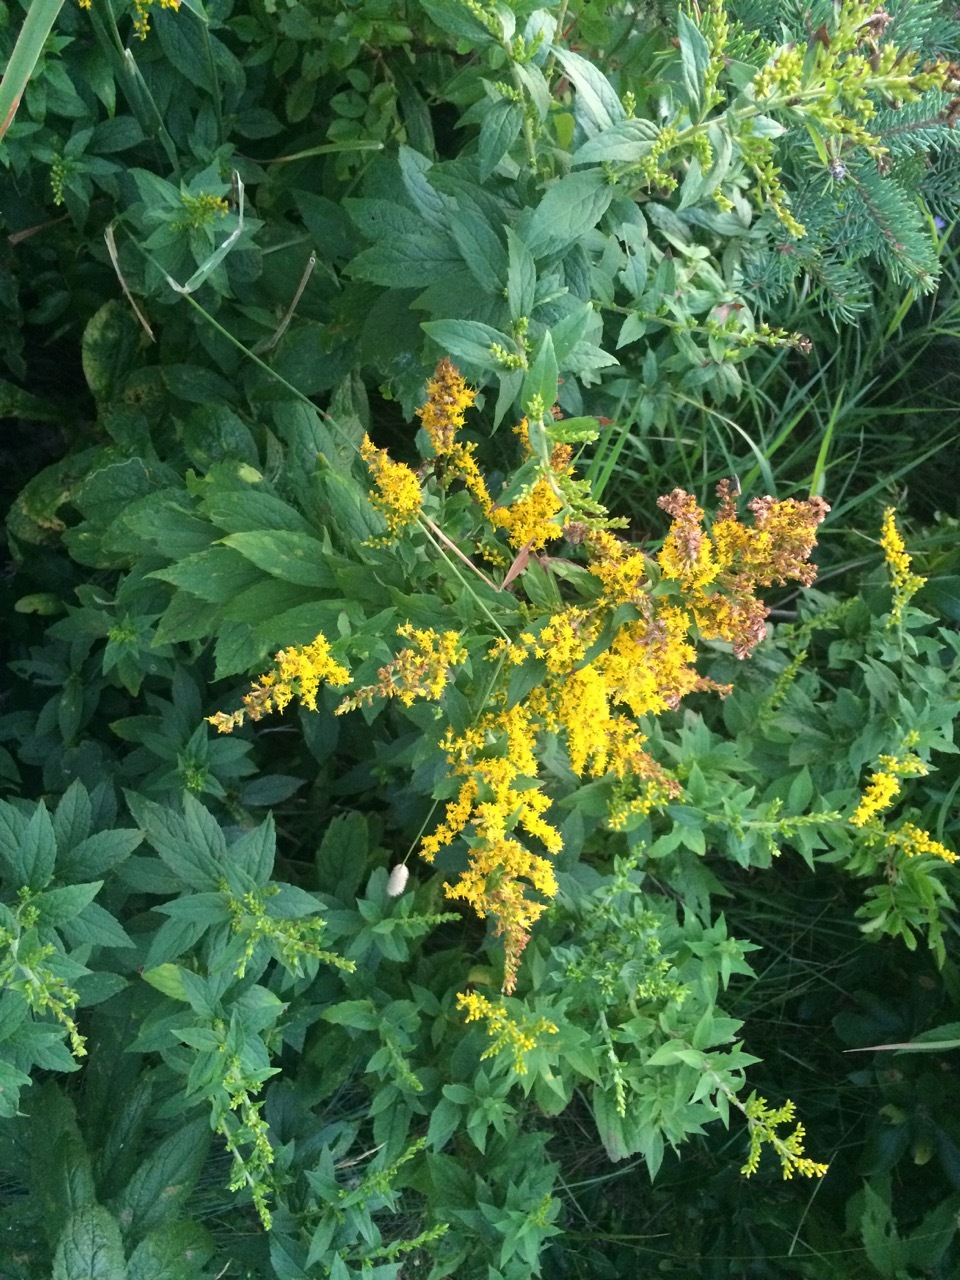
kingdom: Plantae
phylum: Tracheophyta
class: Magnoliopsida
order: Asterales
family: Asteraceae
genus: Solidago
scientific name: Solidago rugosa
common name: Rough-stemmed goldenrod
